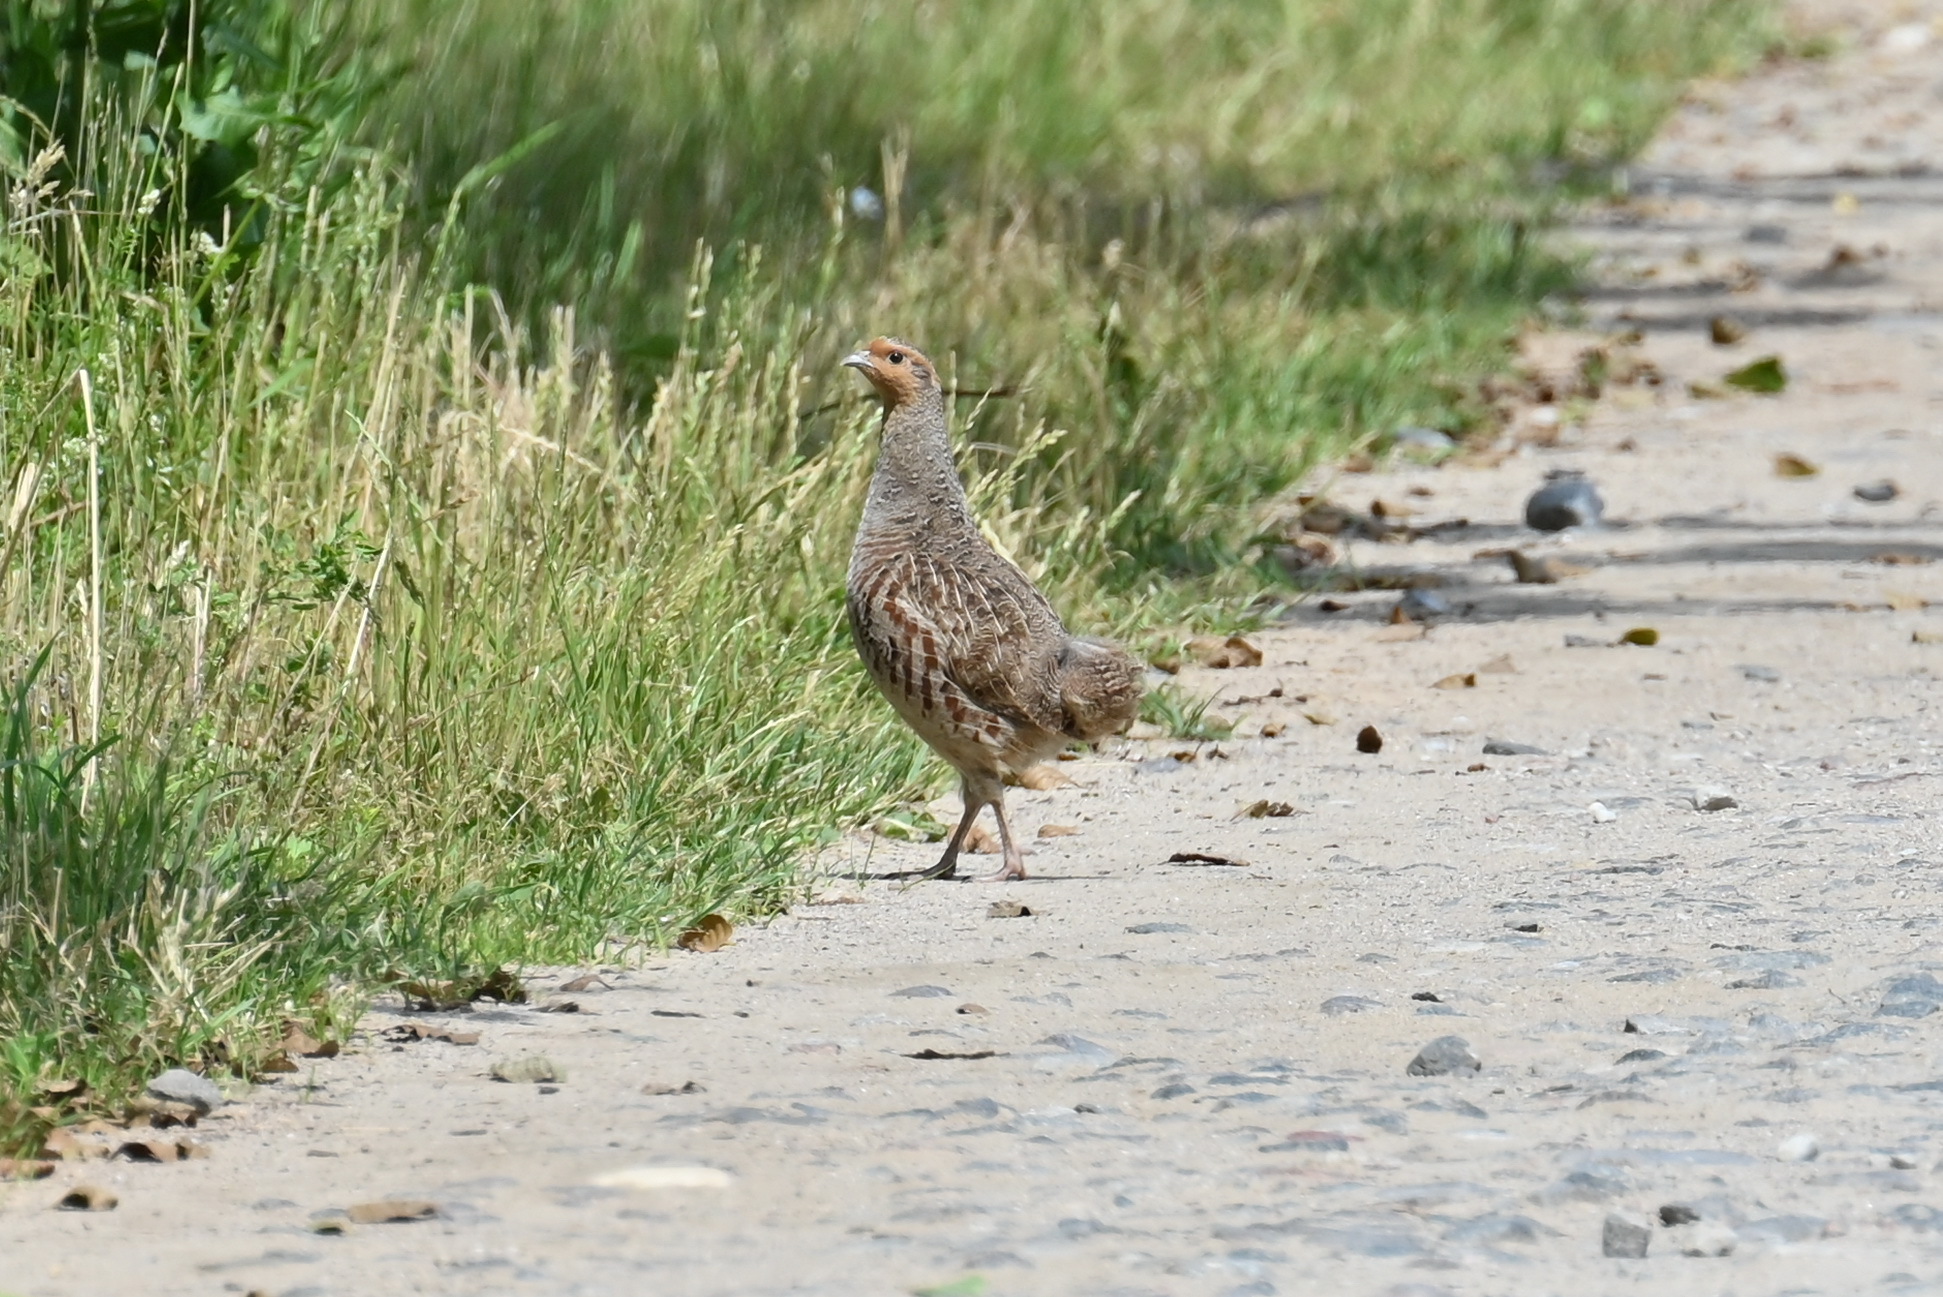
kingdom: Animalia
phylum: Chordata
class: Aves
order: Galliformes
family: Phasianidae
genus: Perdix
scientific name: Perdix perdix
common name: Grey partridge
